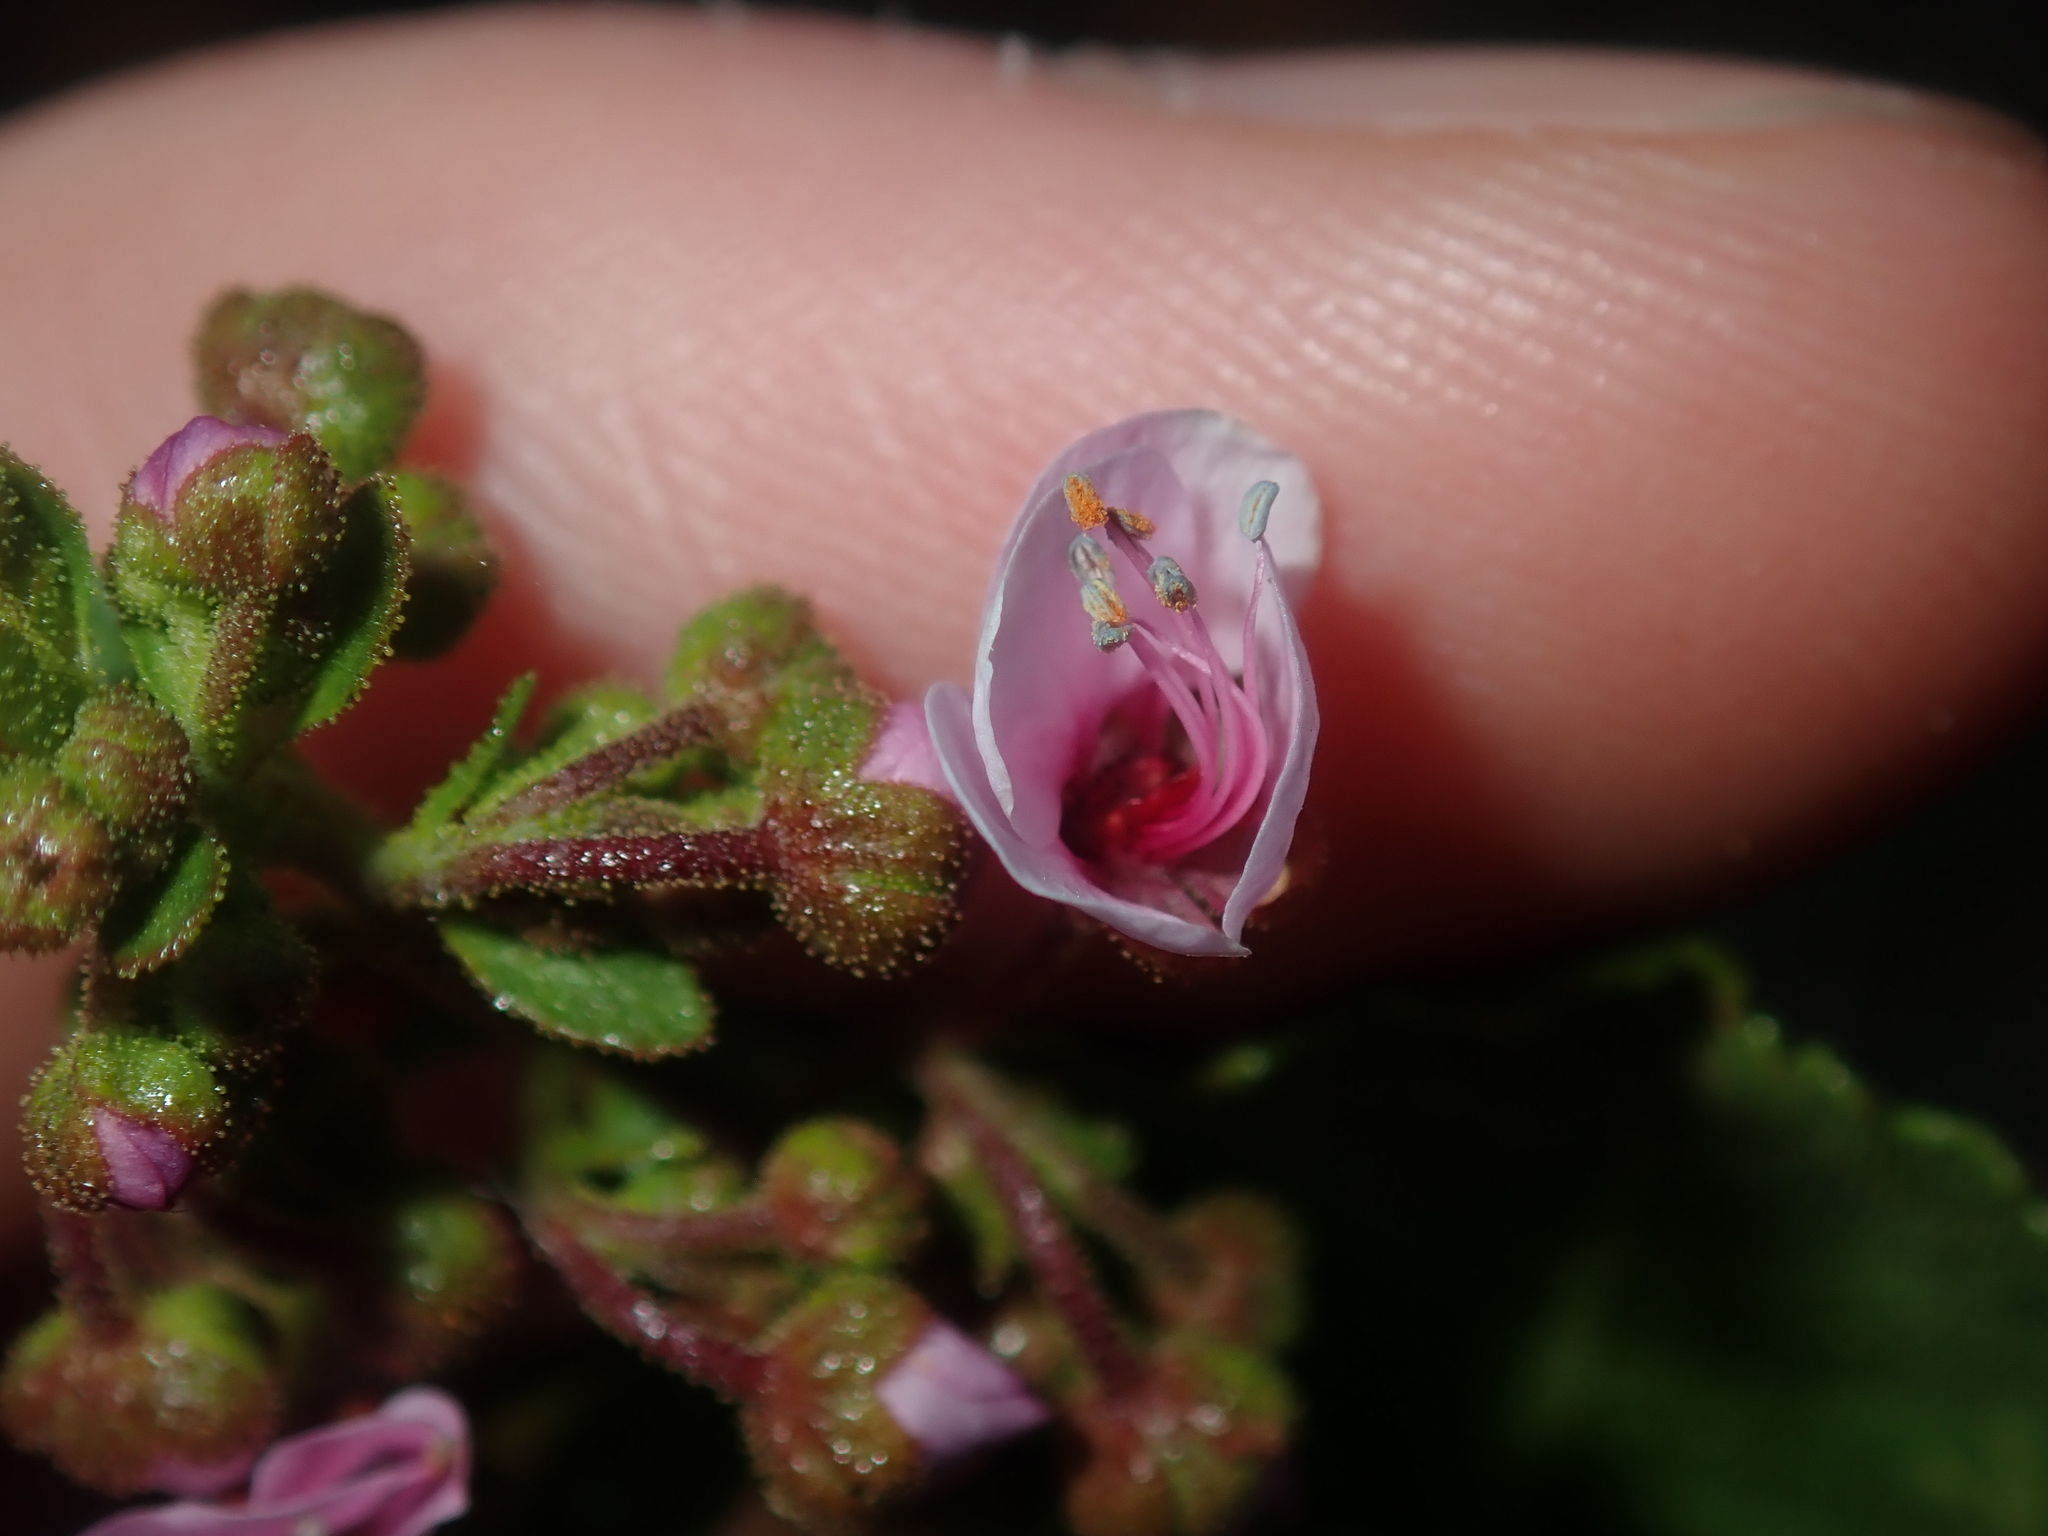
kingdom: Plantae
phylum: Tracheophyta
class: Magnoliopsida
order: Sapindales
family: Sapindaceae
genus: Diplopeltis
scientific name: Diplopeltis petiolaris
